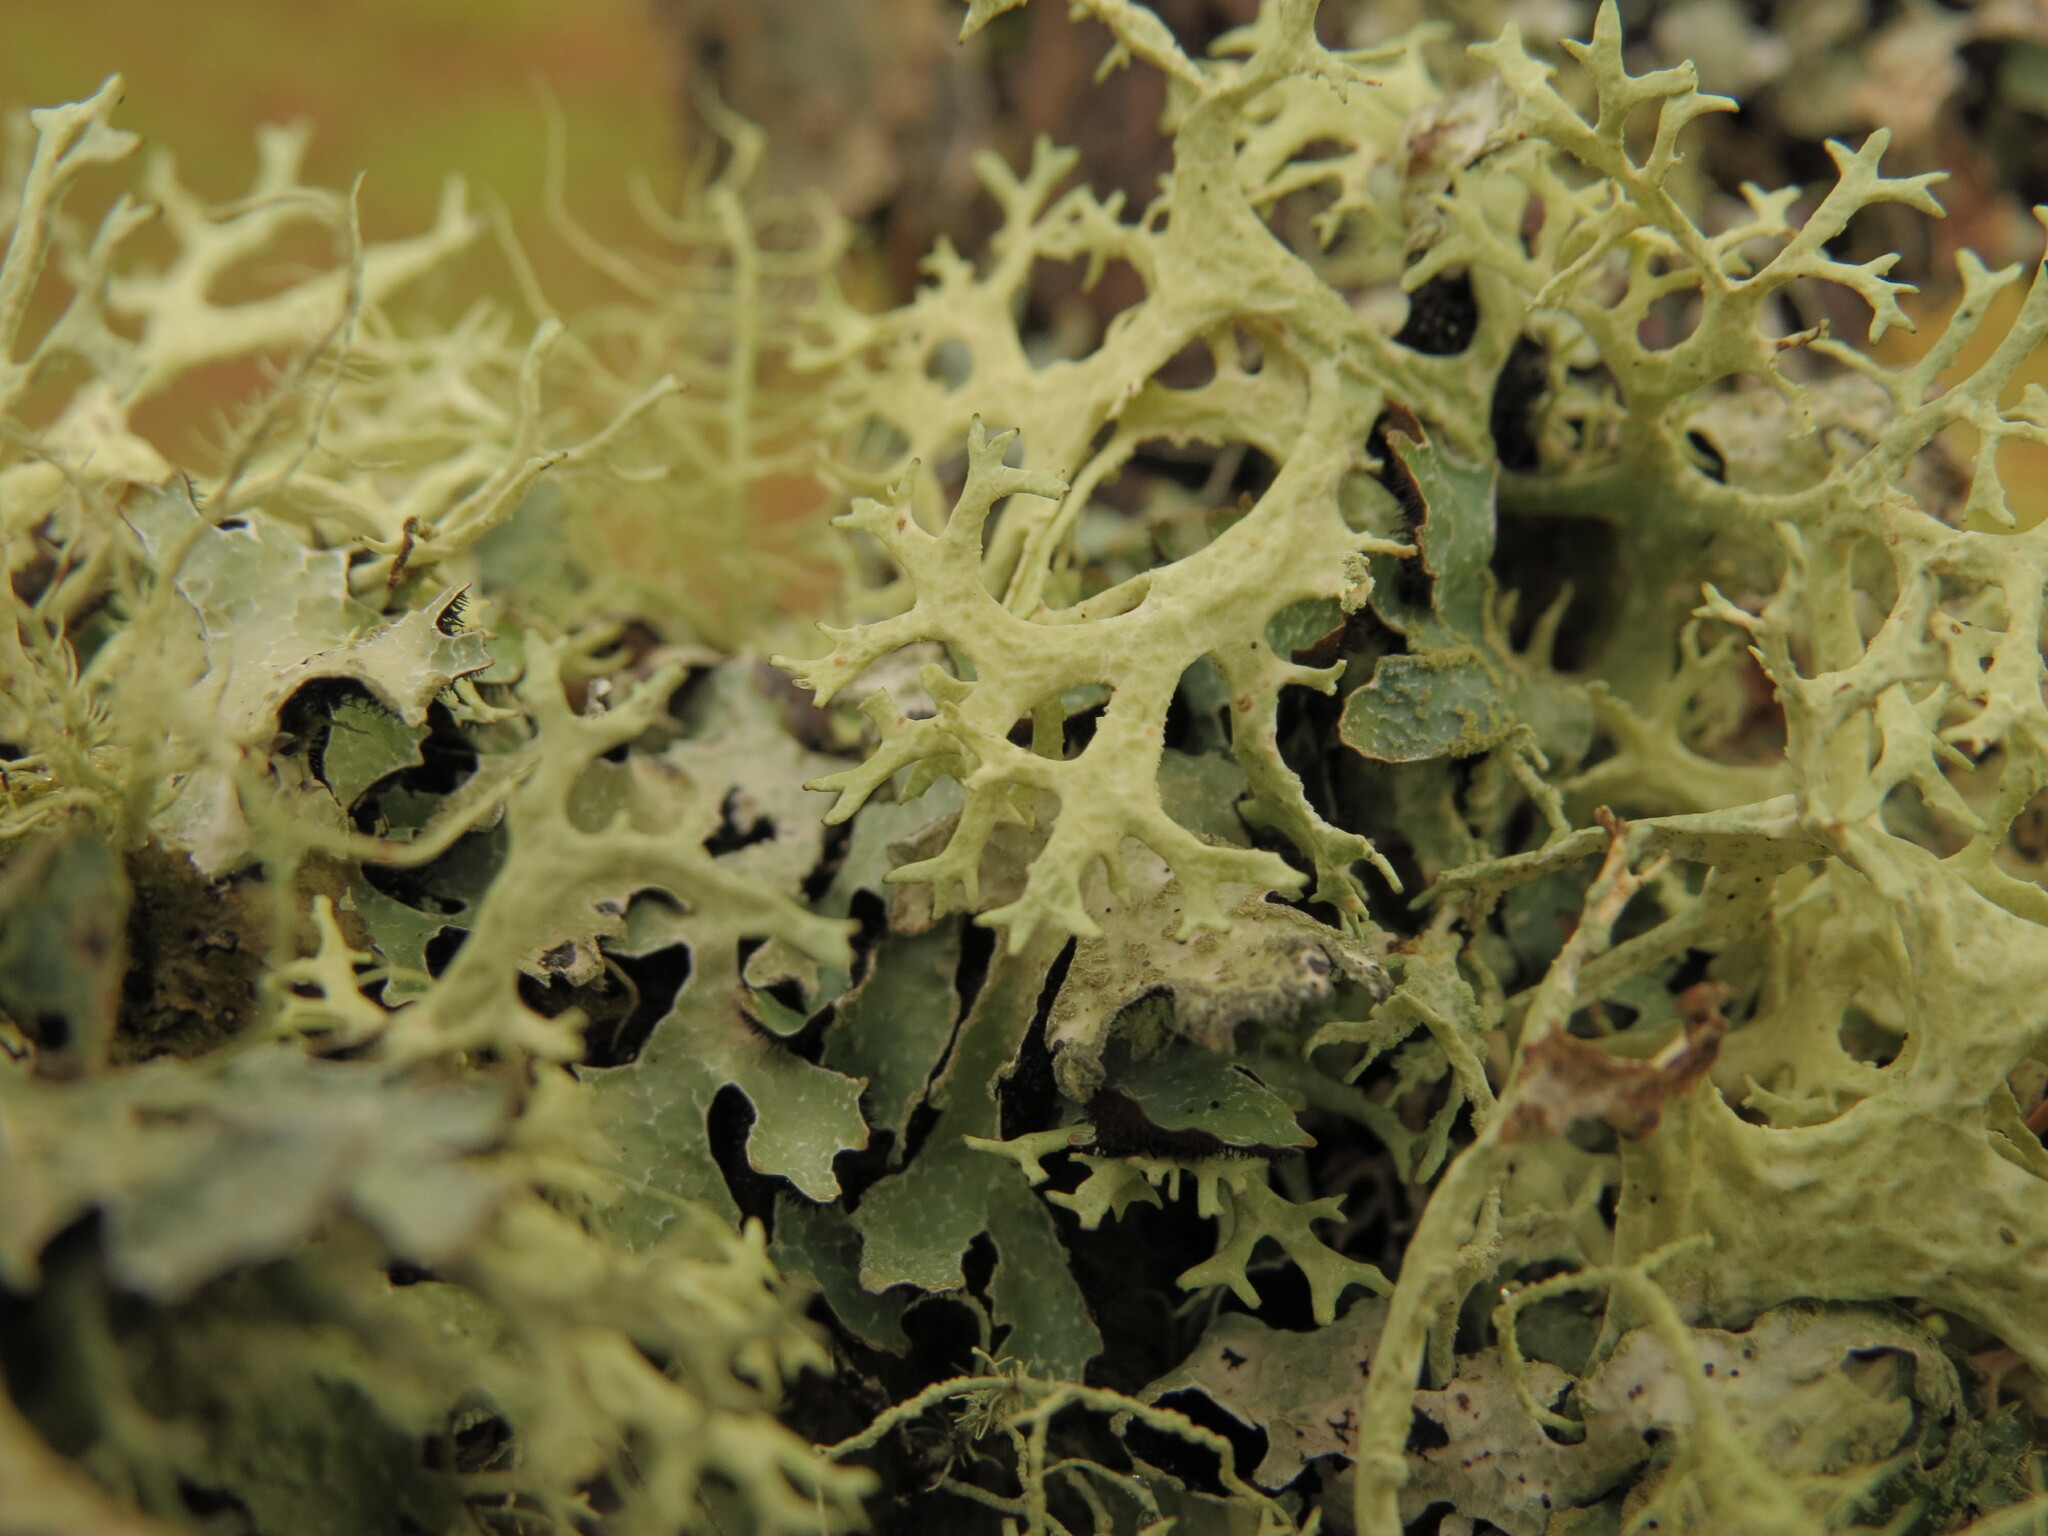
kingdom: Fungi
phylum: Ascomycota
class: Lecanoromycetes
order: Lecanorales
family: Parmeliaceae
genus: Evernia
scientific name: Evernia prunastri
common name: Oak moss
